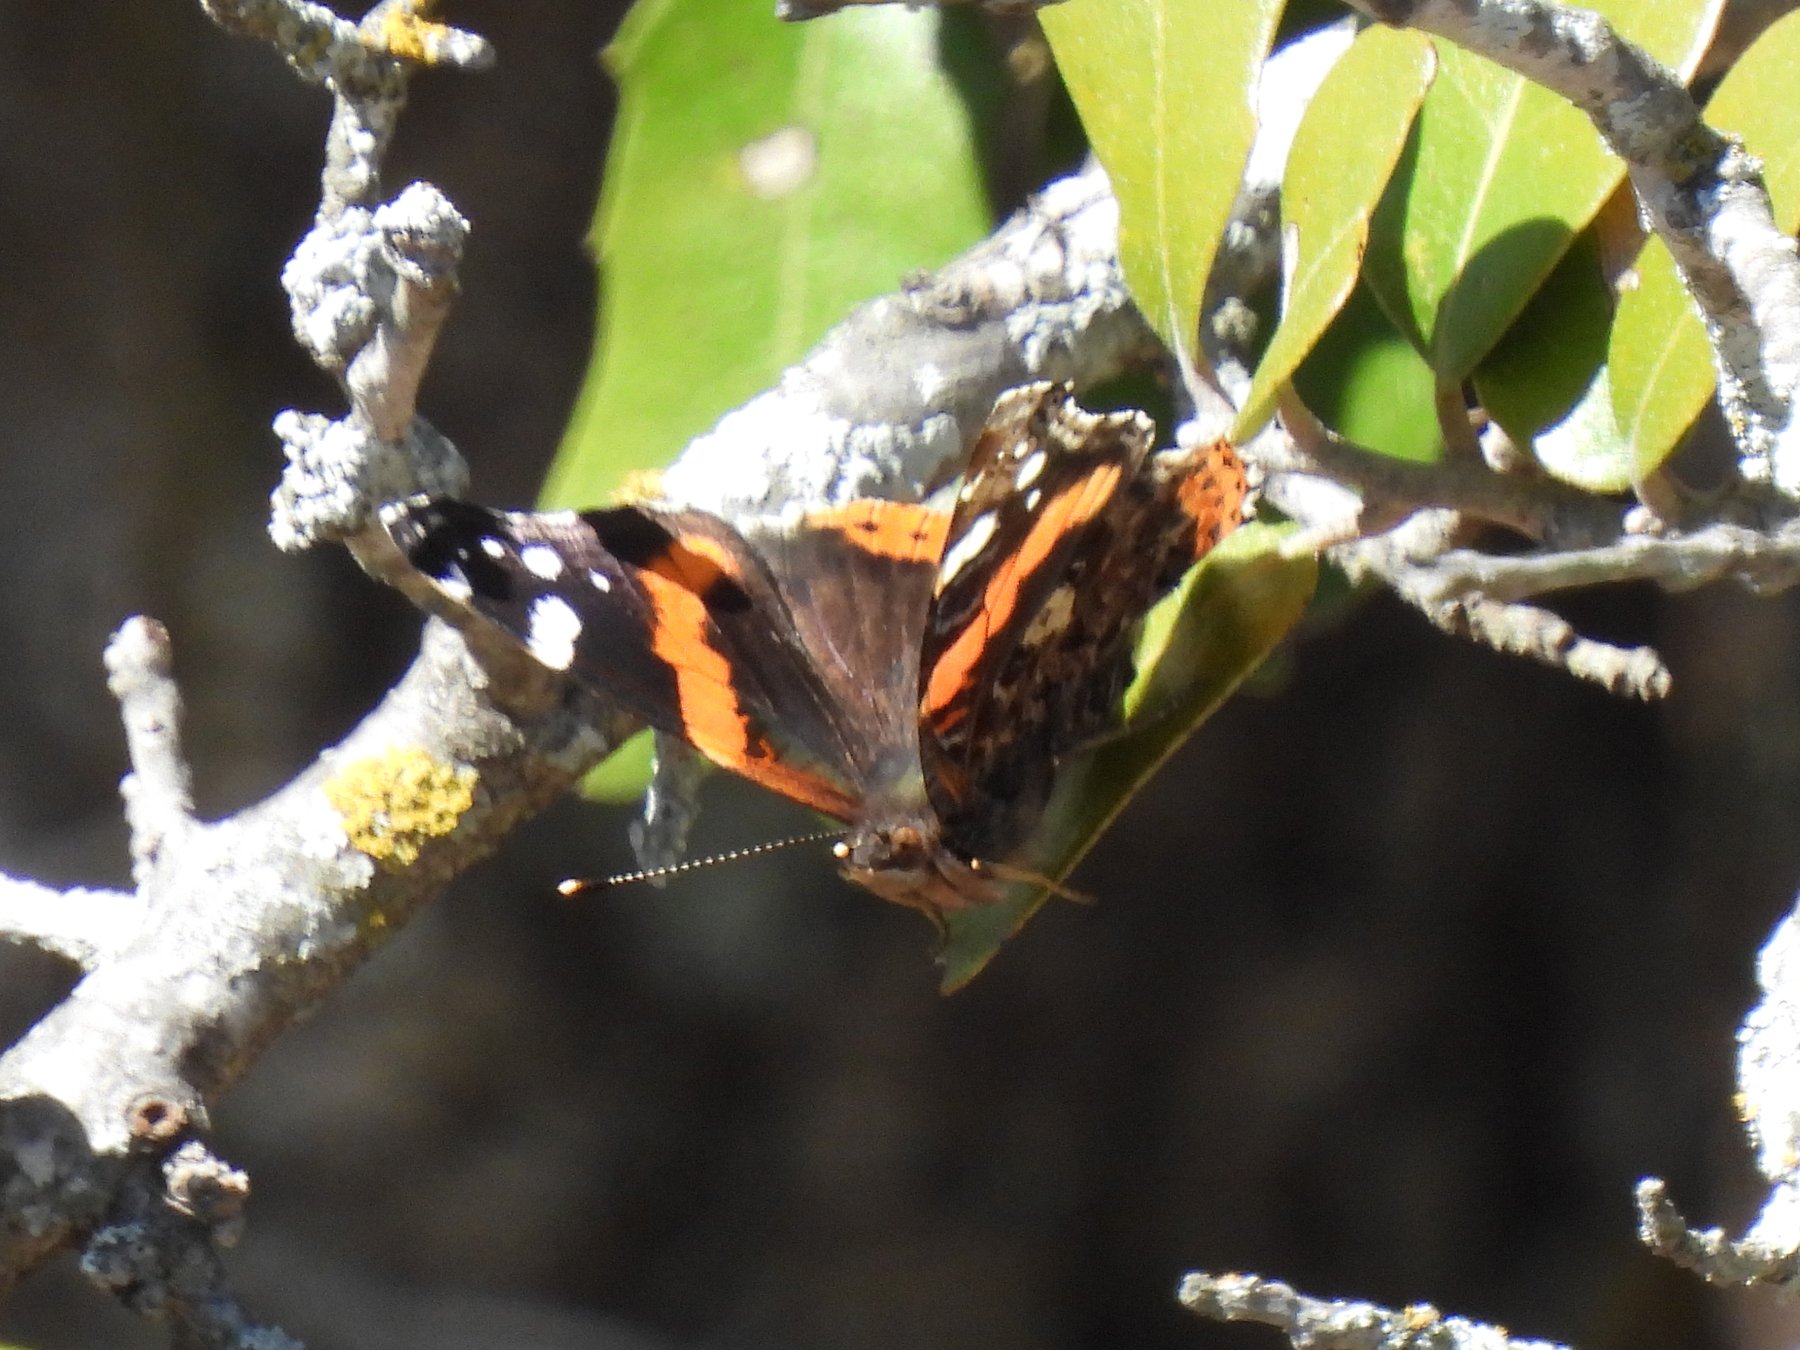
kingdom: Animalia
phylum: Arthropoda
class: Insecta
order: Lepidoptera
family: Nymphalidae
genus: Vanessa
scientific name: Vanessa atalanta
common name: Red admiral
